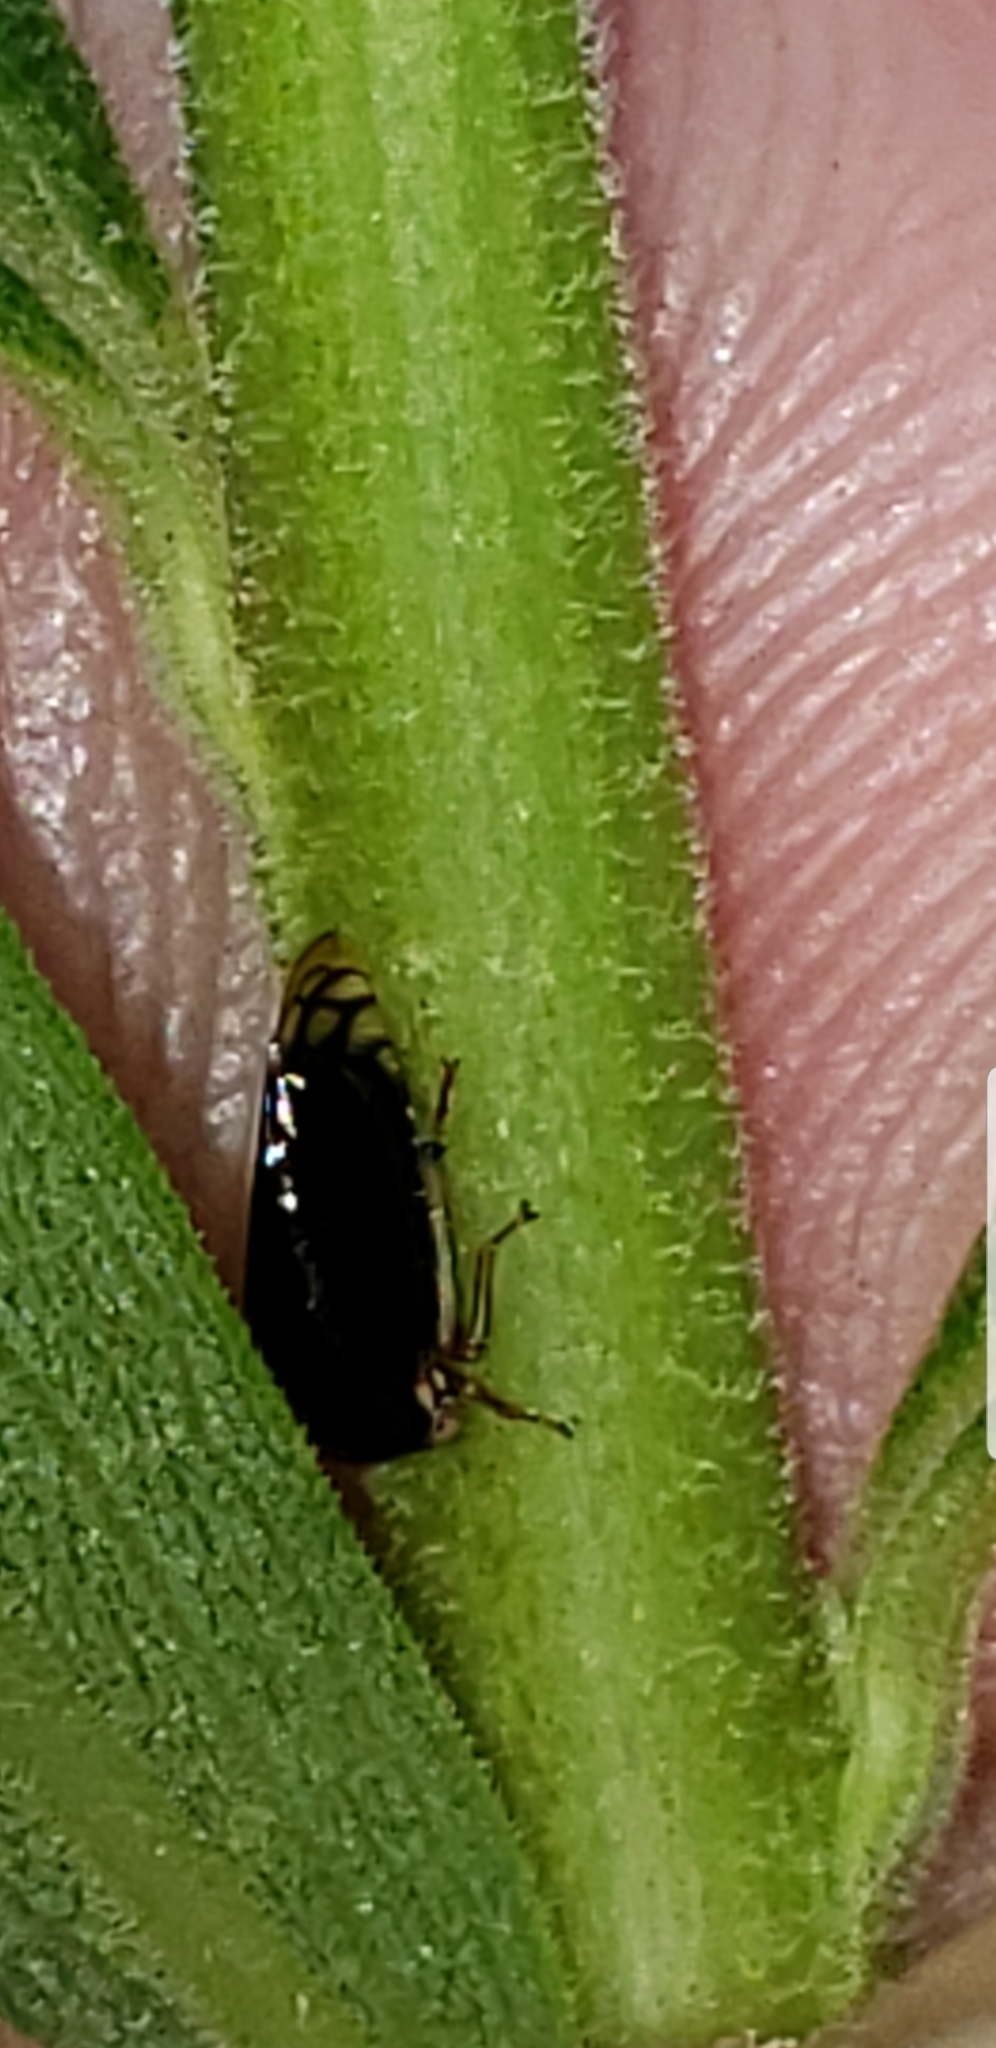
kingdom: Animalia
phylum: Arthropoda
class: Insecta
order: Hemiptera
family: Membracidae
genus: Acutalis
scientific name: Acutalis tartarea
